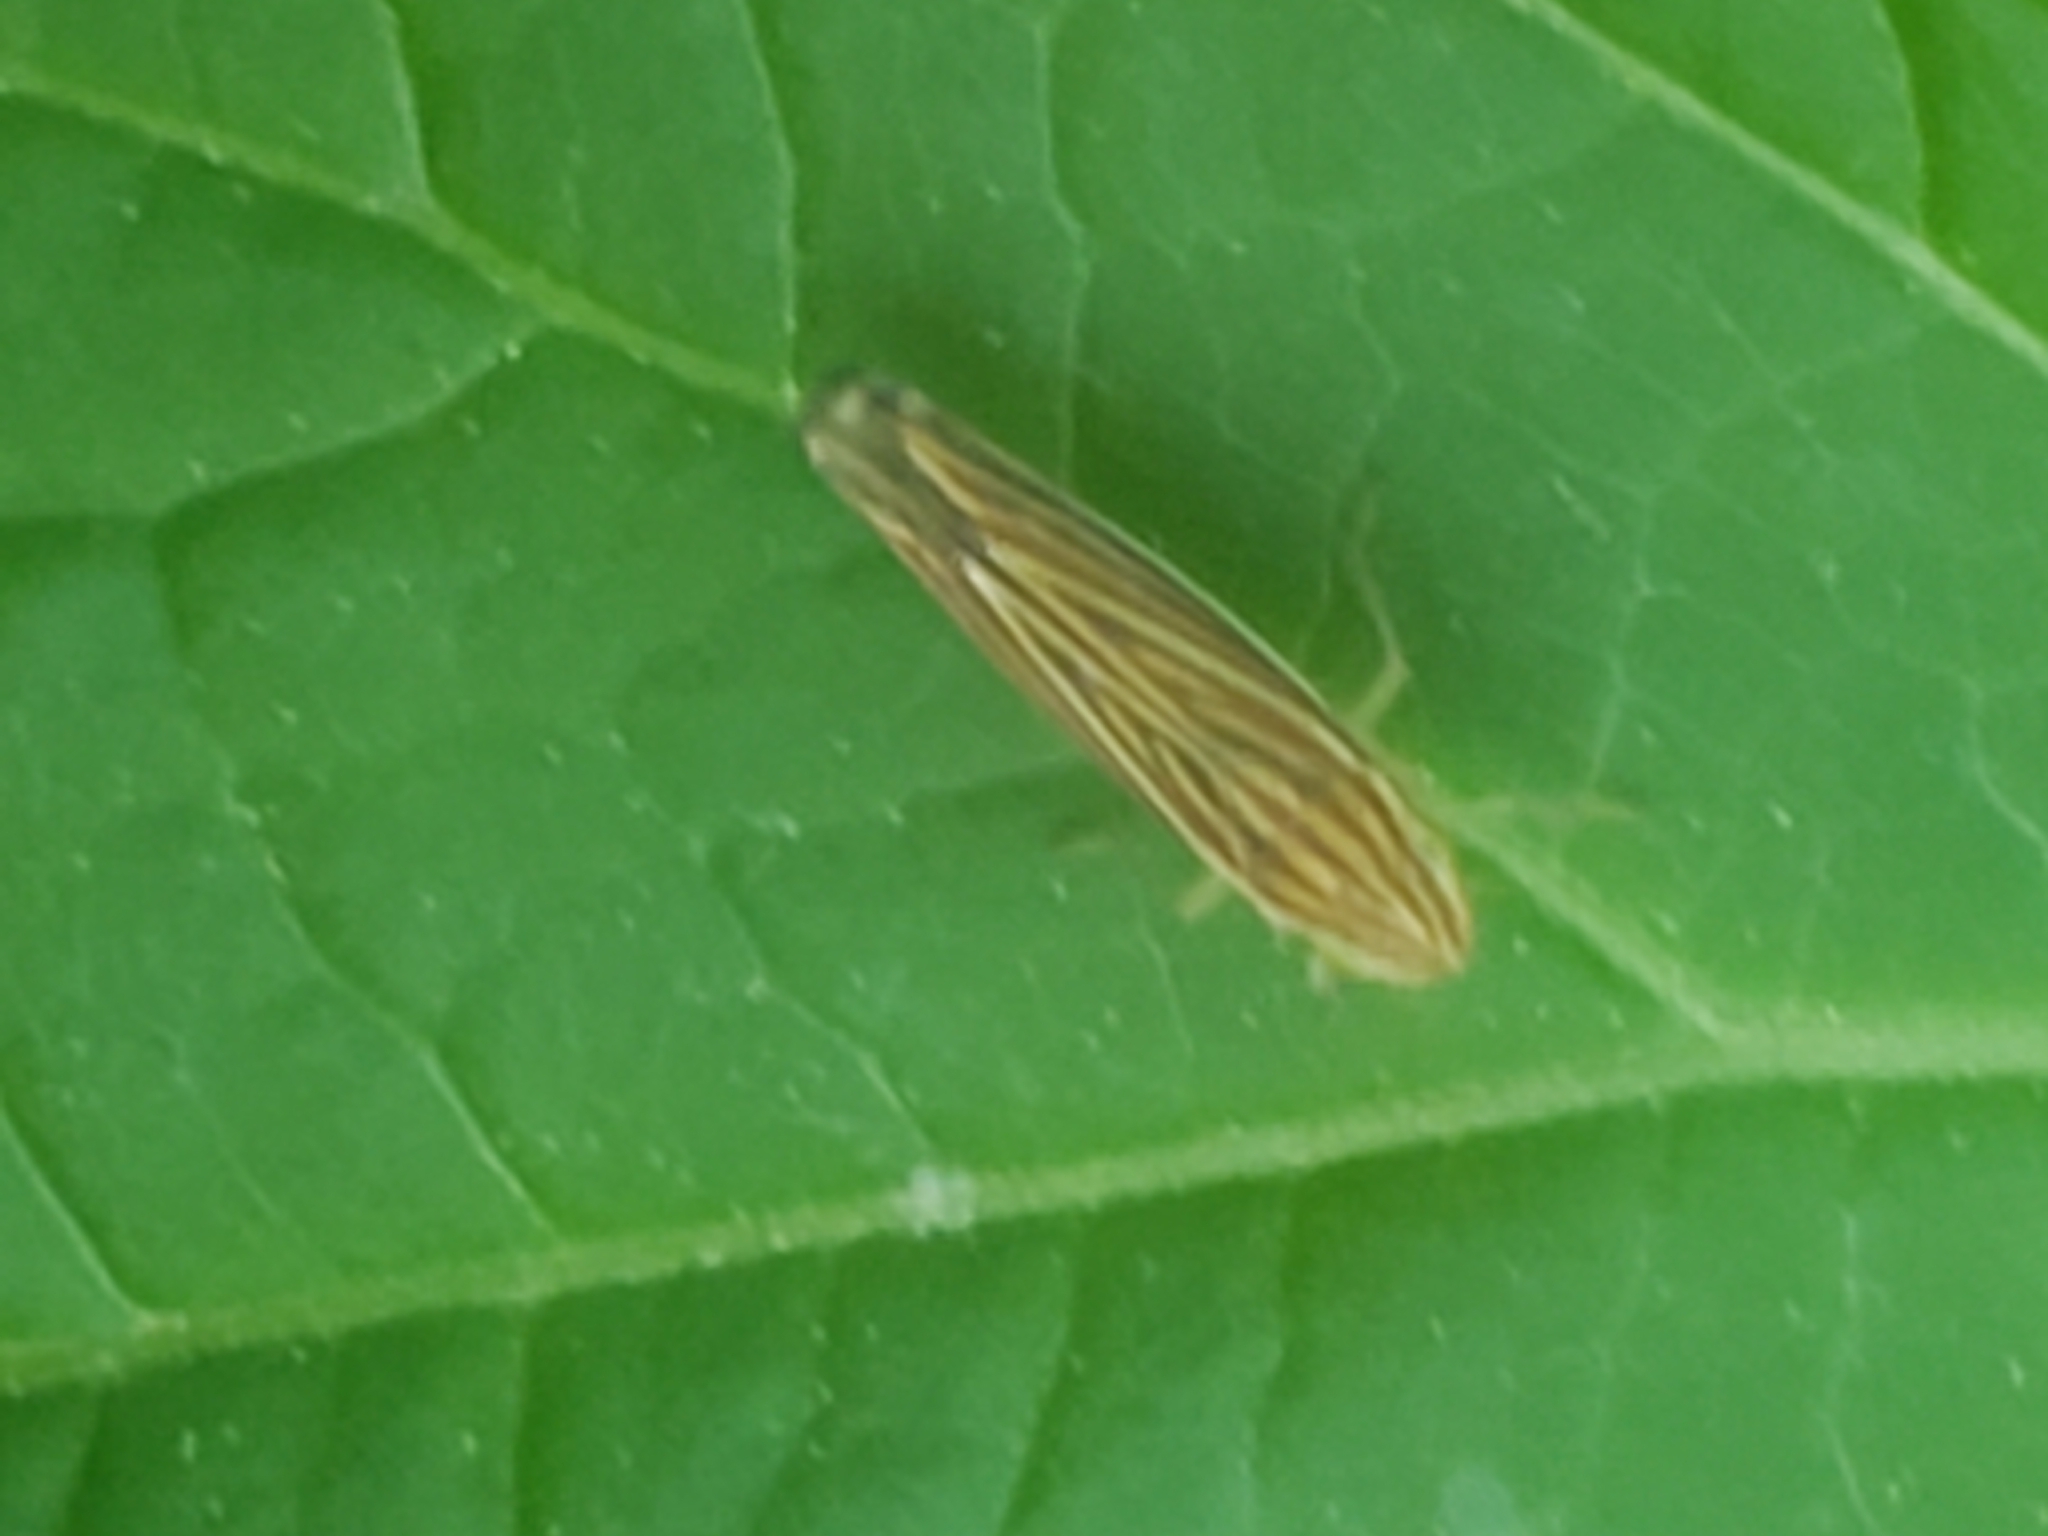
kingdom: Animalia
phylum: Arthropoda
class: Insecta
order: Hemiptera
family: Cicadellidae
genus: Sibovia
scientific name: Sibovia occatoria
